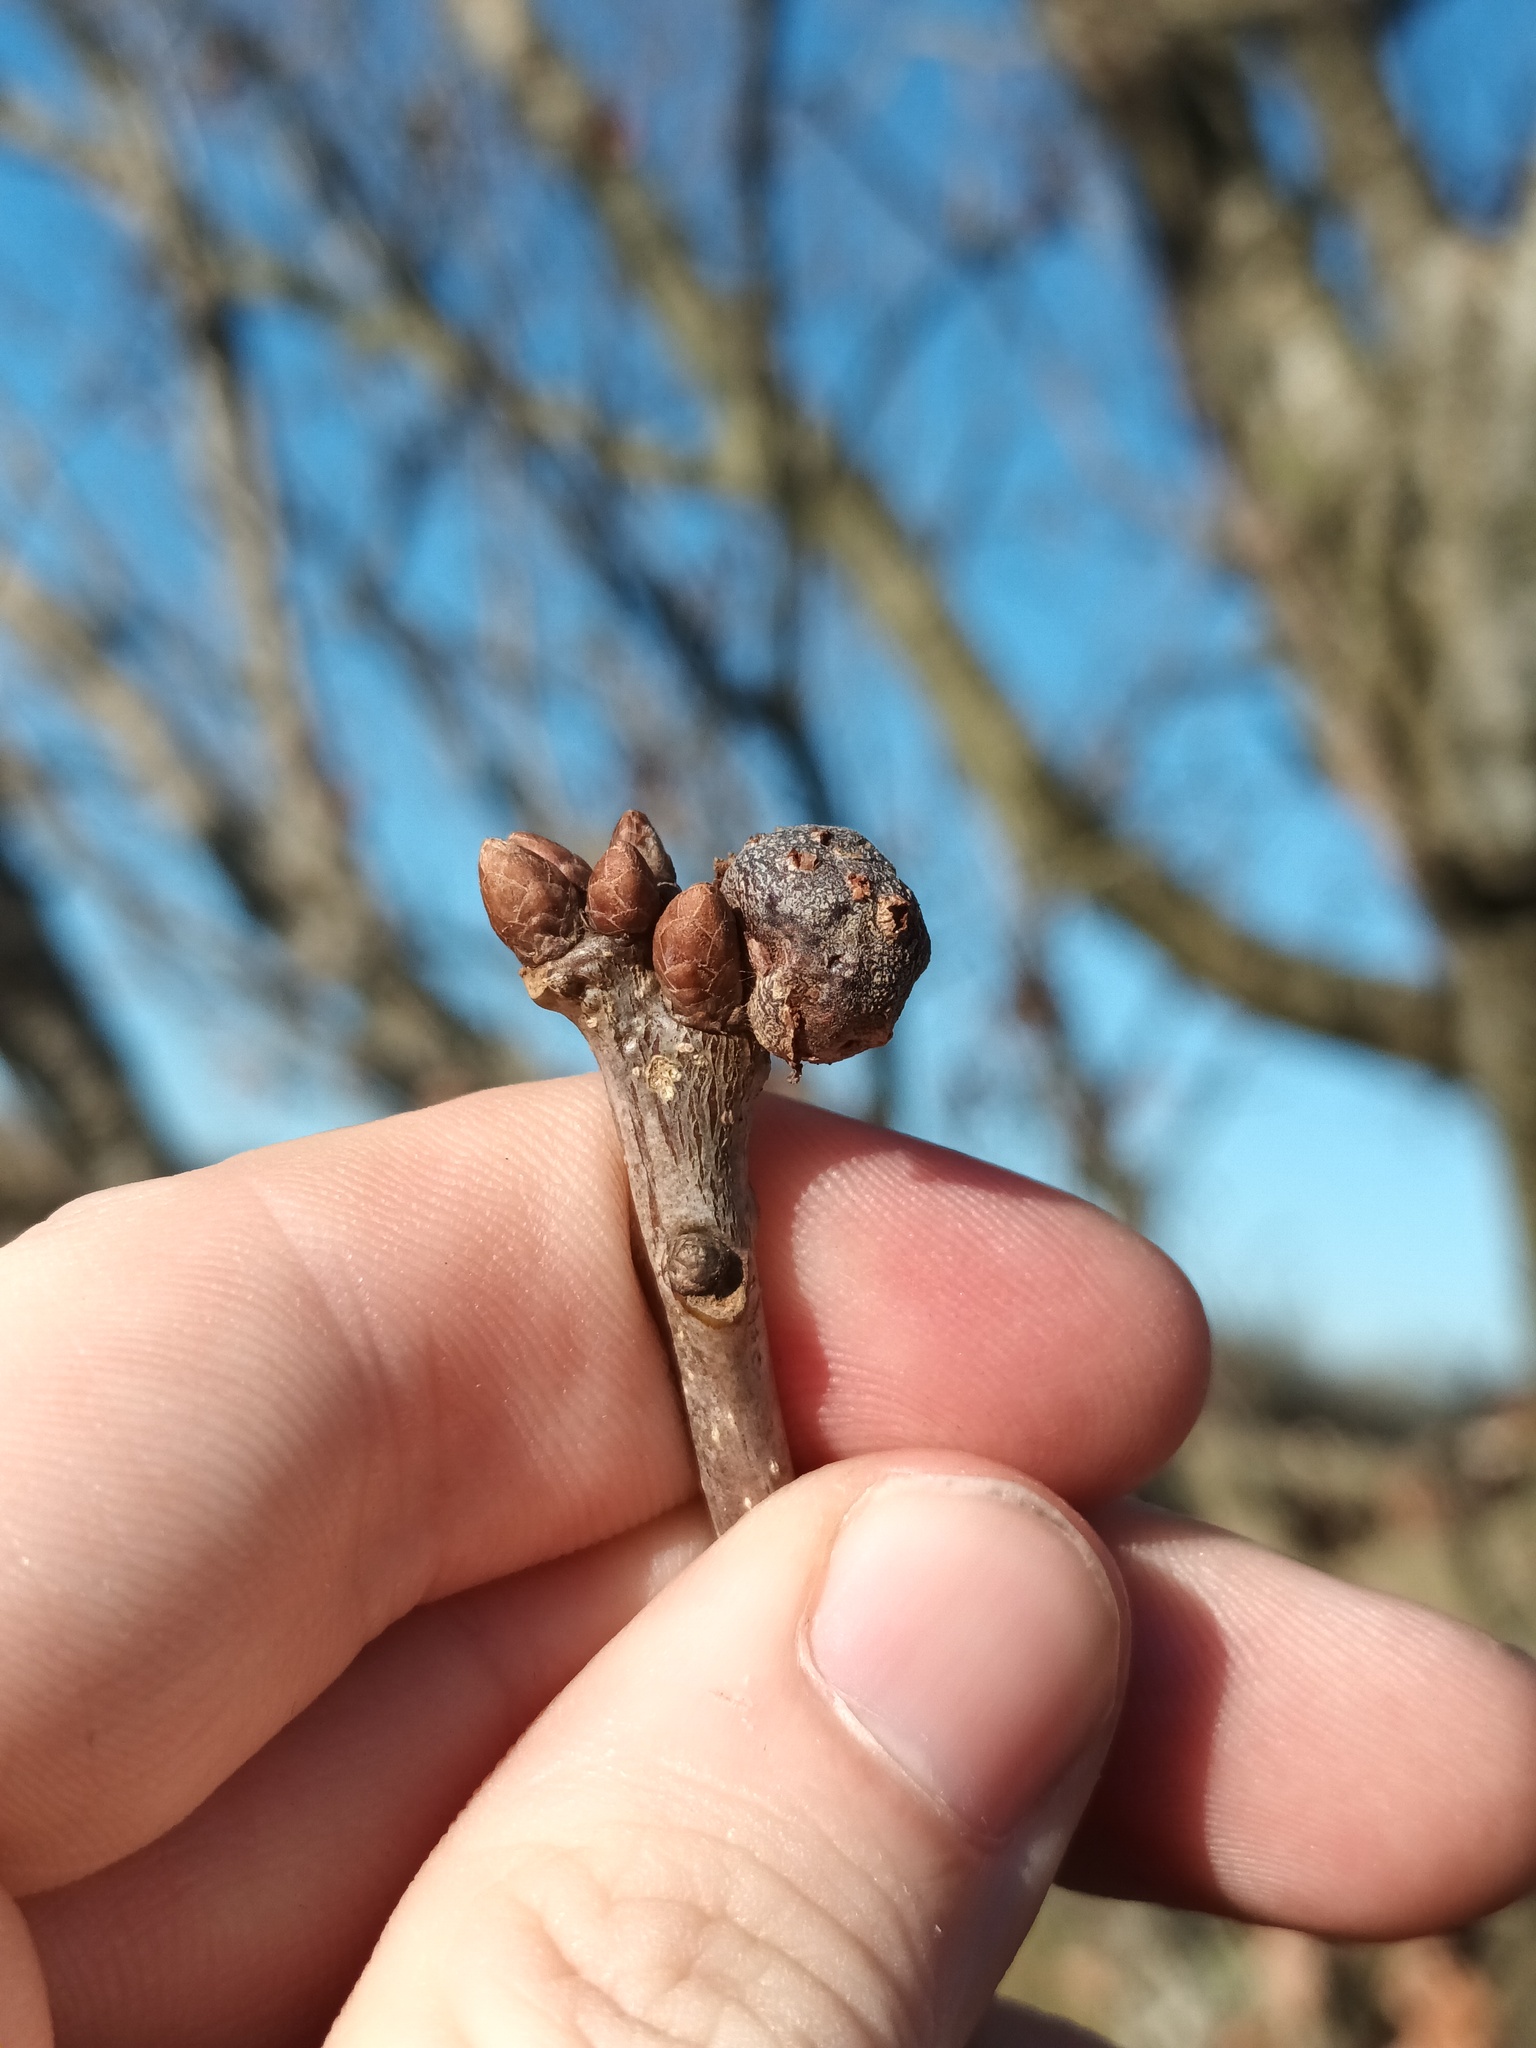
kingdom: Animalia
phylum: Arthropoda
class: Insecta
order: Hymenoptera
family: Cynipidae
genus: Andricus
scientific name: Andricus lignicolus
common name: Cola-nut gall
